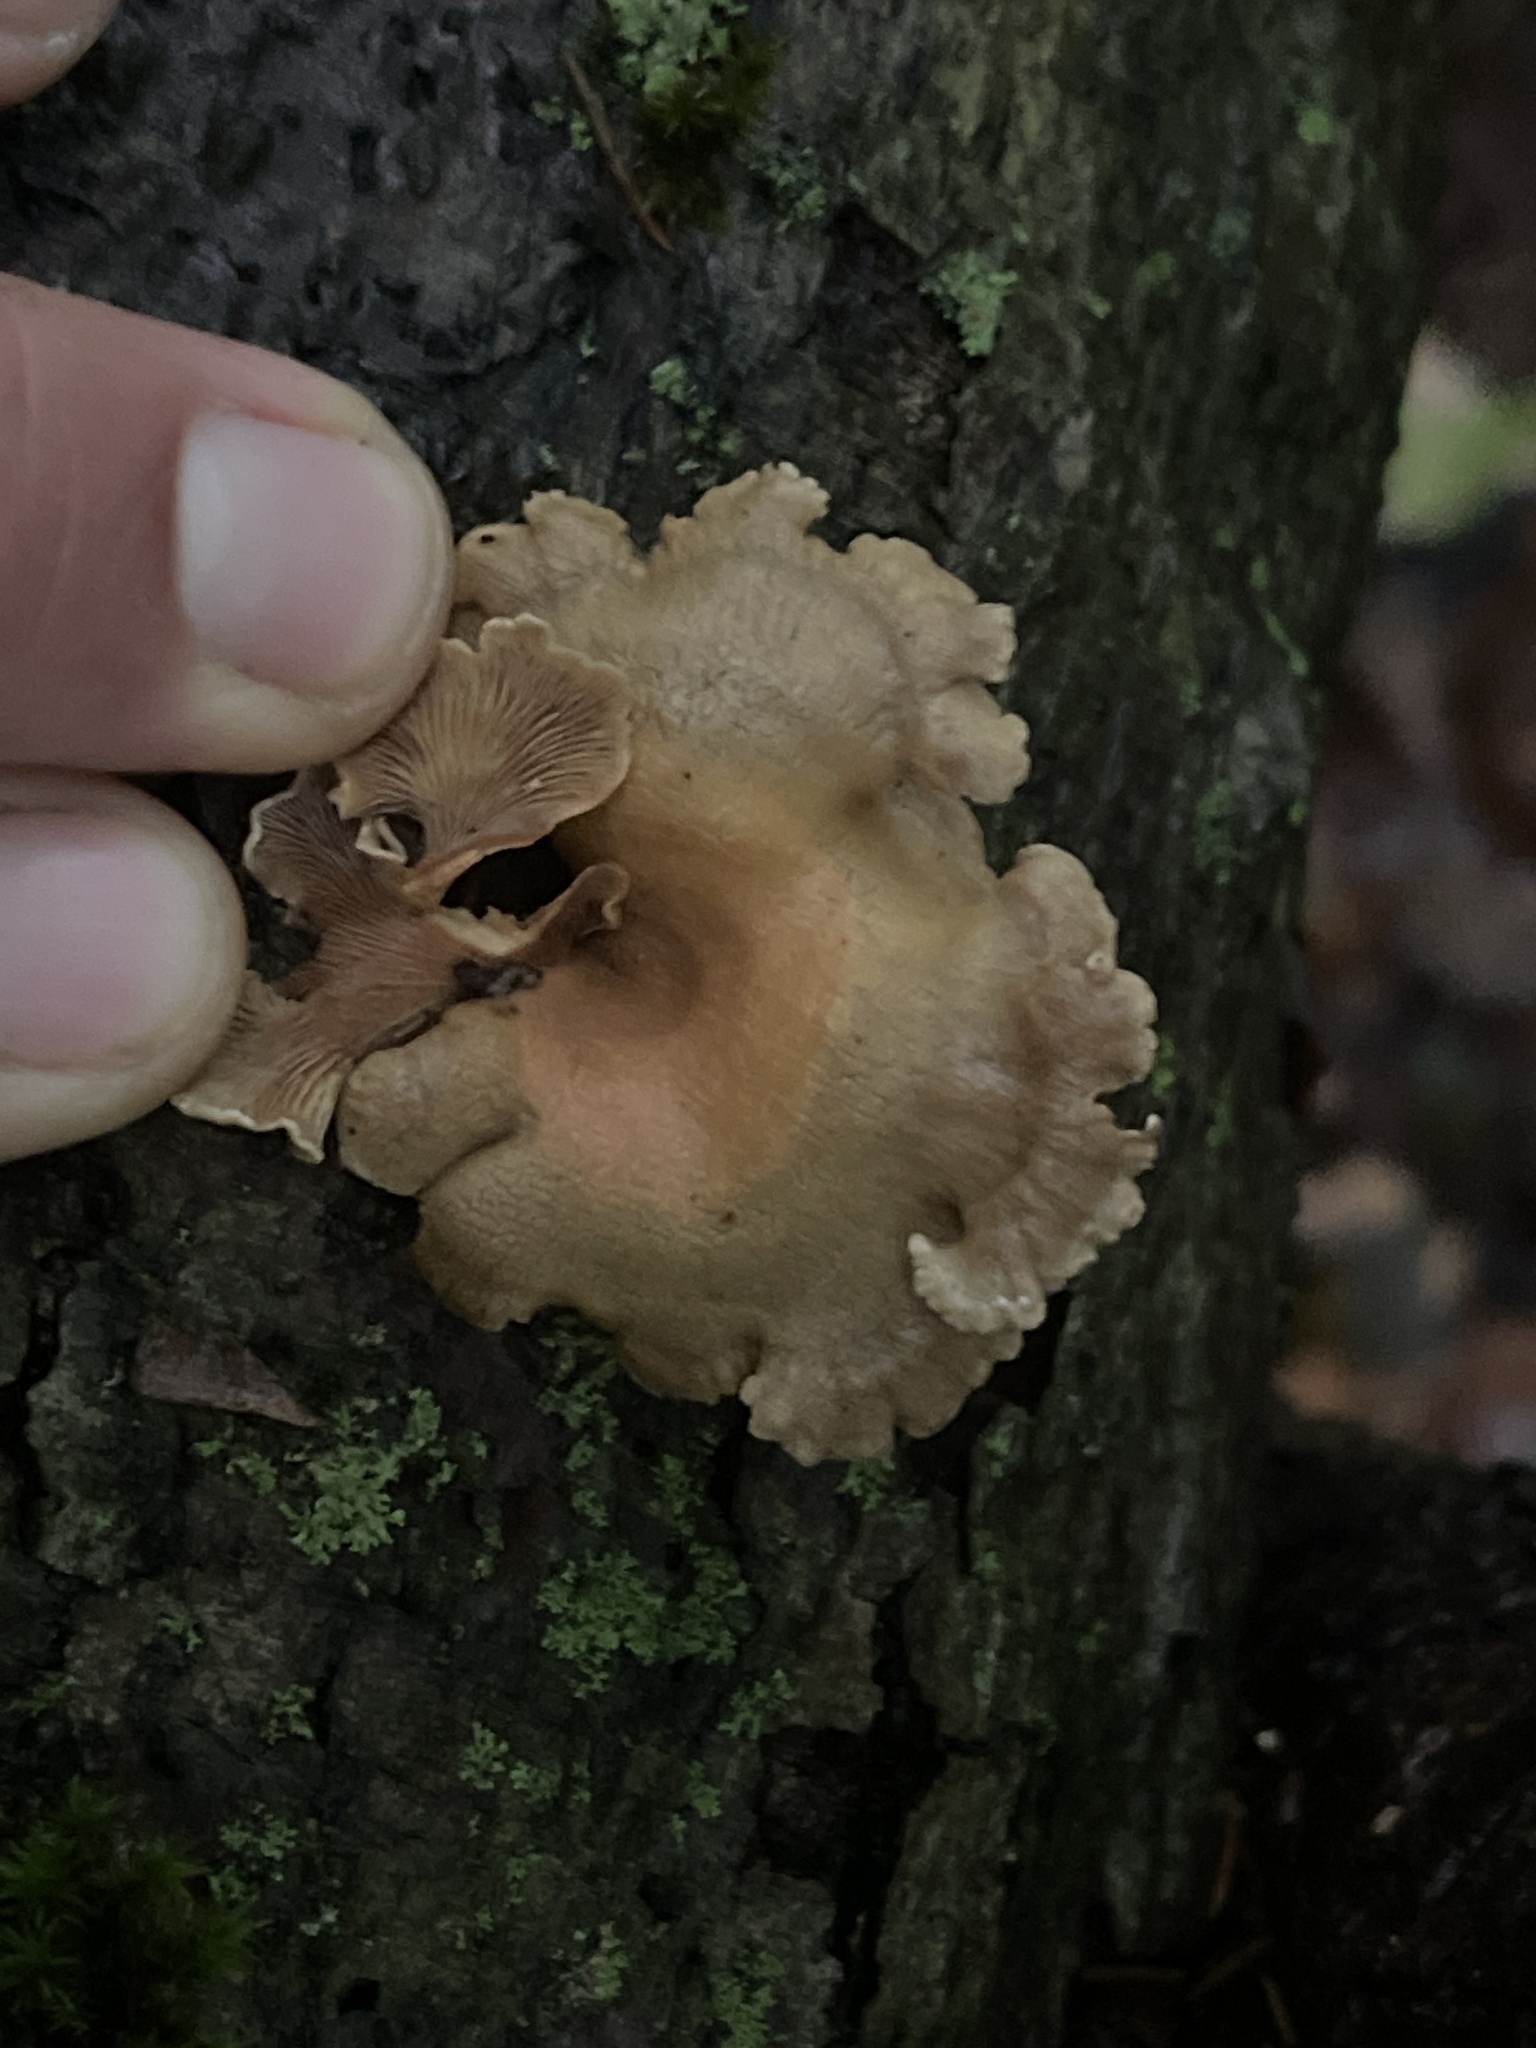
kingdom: Fungi
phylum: Basidiomycota
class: Agaricomycetes
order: Agaricales
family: Mycenaceae
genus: Panellus
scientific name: Panellus stipticus
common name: Bitter oysterling
